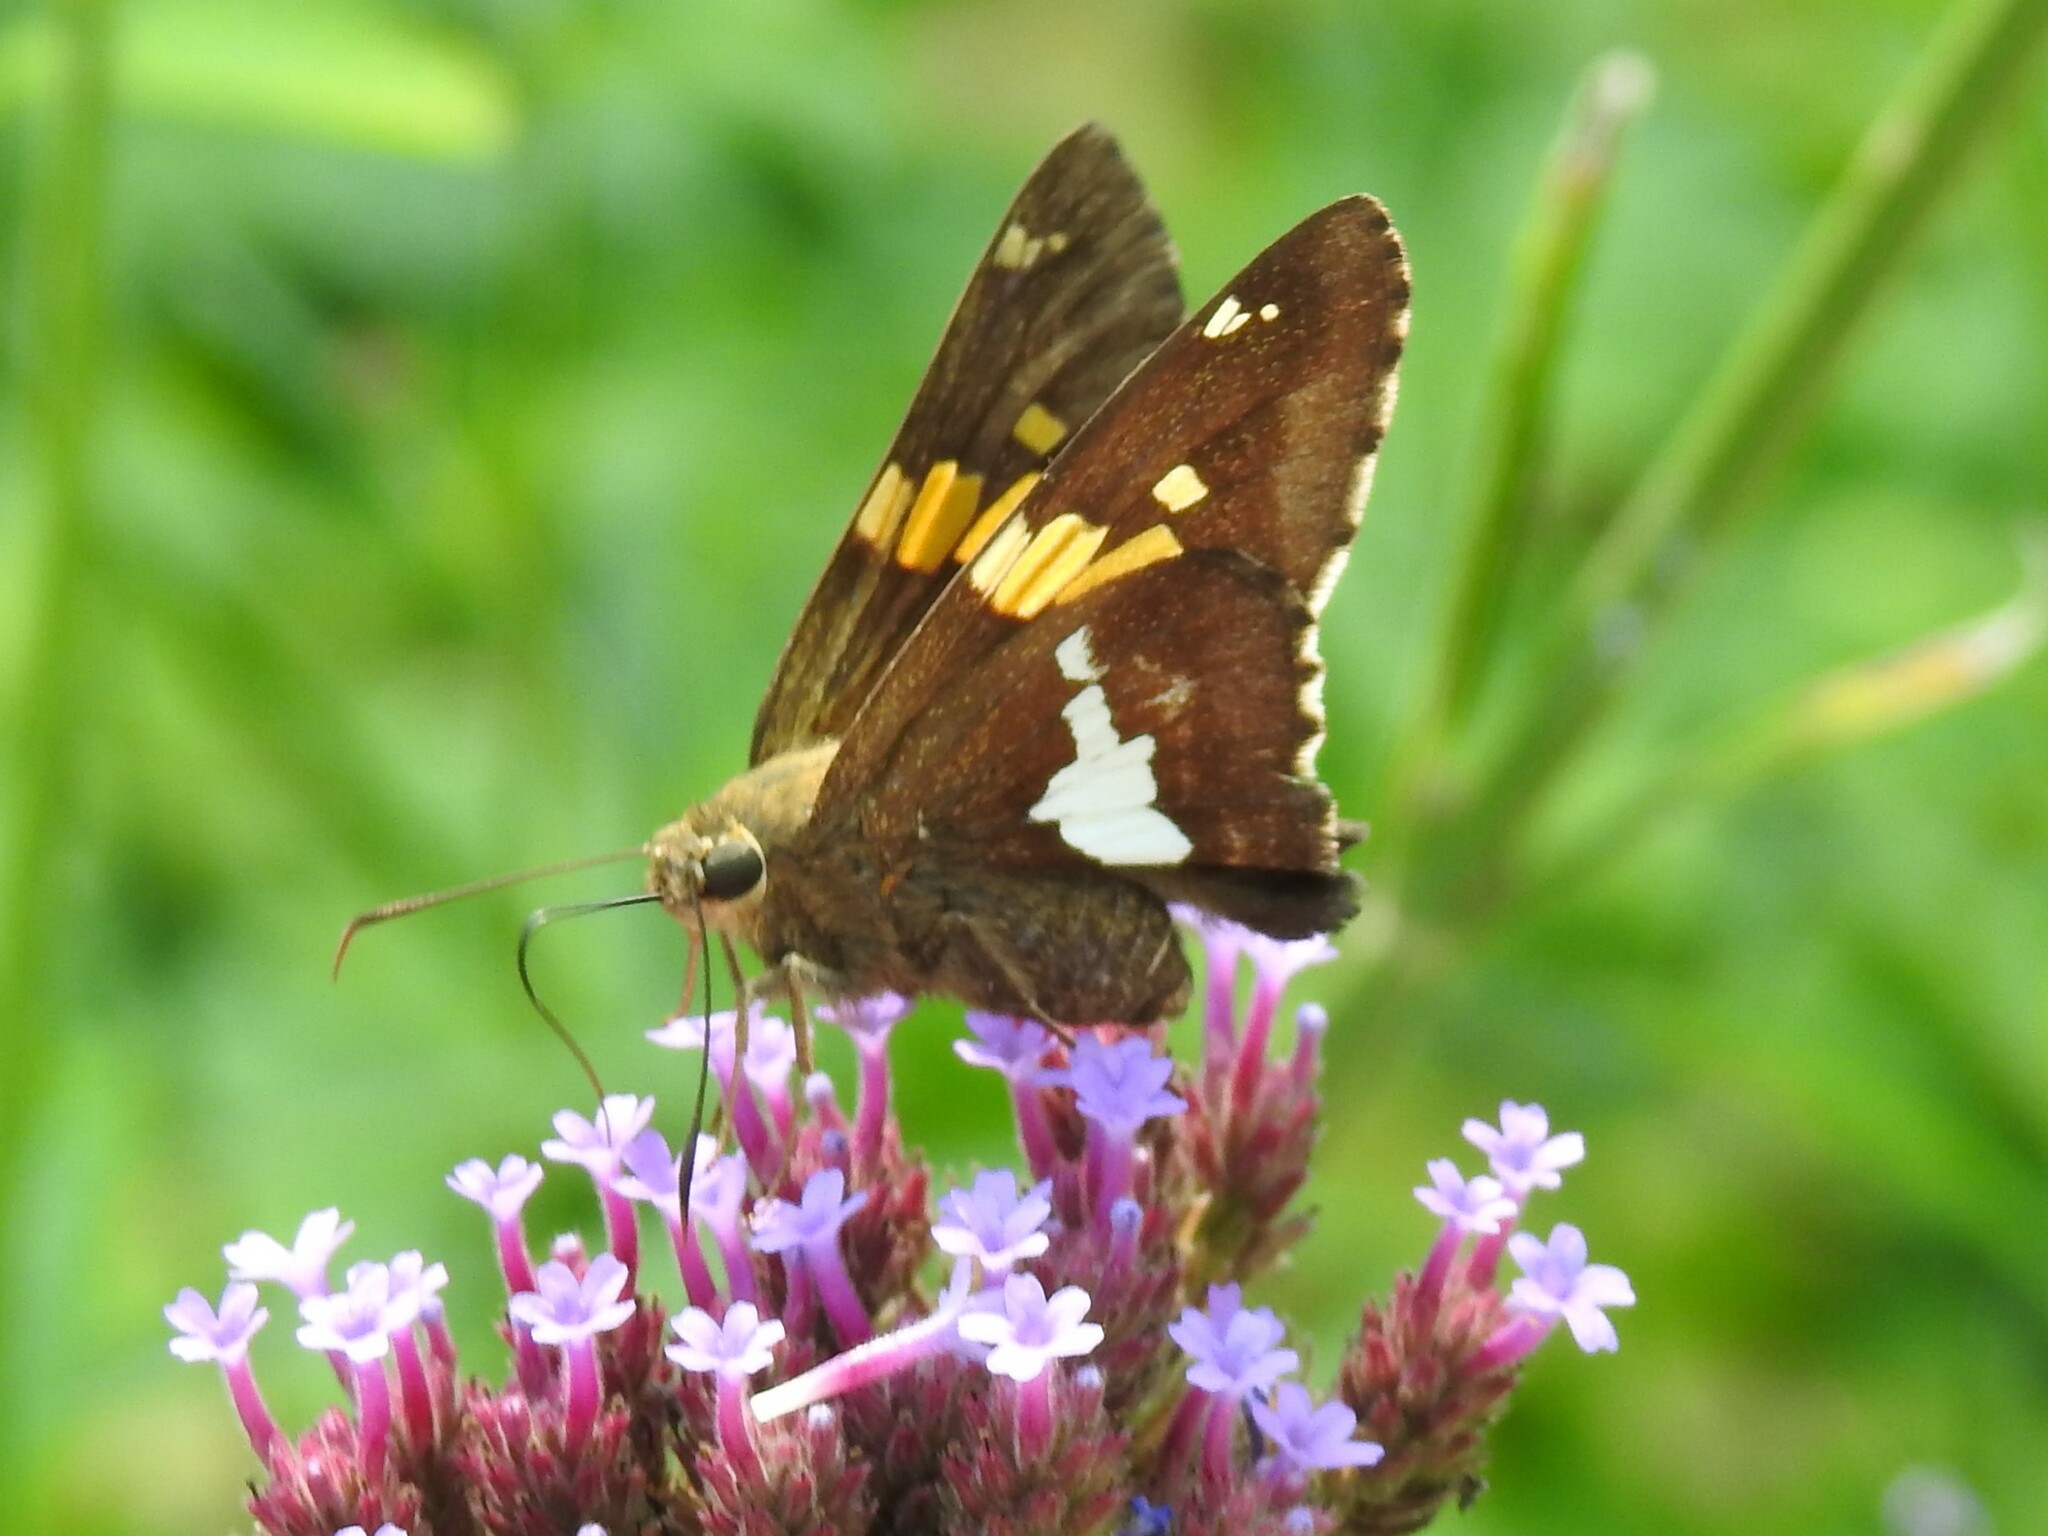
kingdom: Animalia
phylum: Arthropoda
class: Insecta
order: Lepidoptera
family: Hesperiidae
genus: Epargyreus
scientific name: Epargyreus clarus
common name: Silver-spotted skipper
